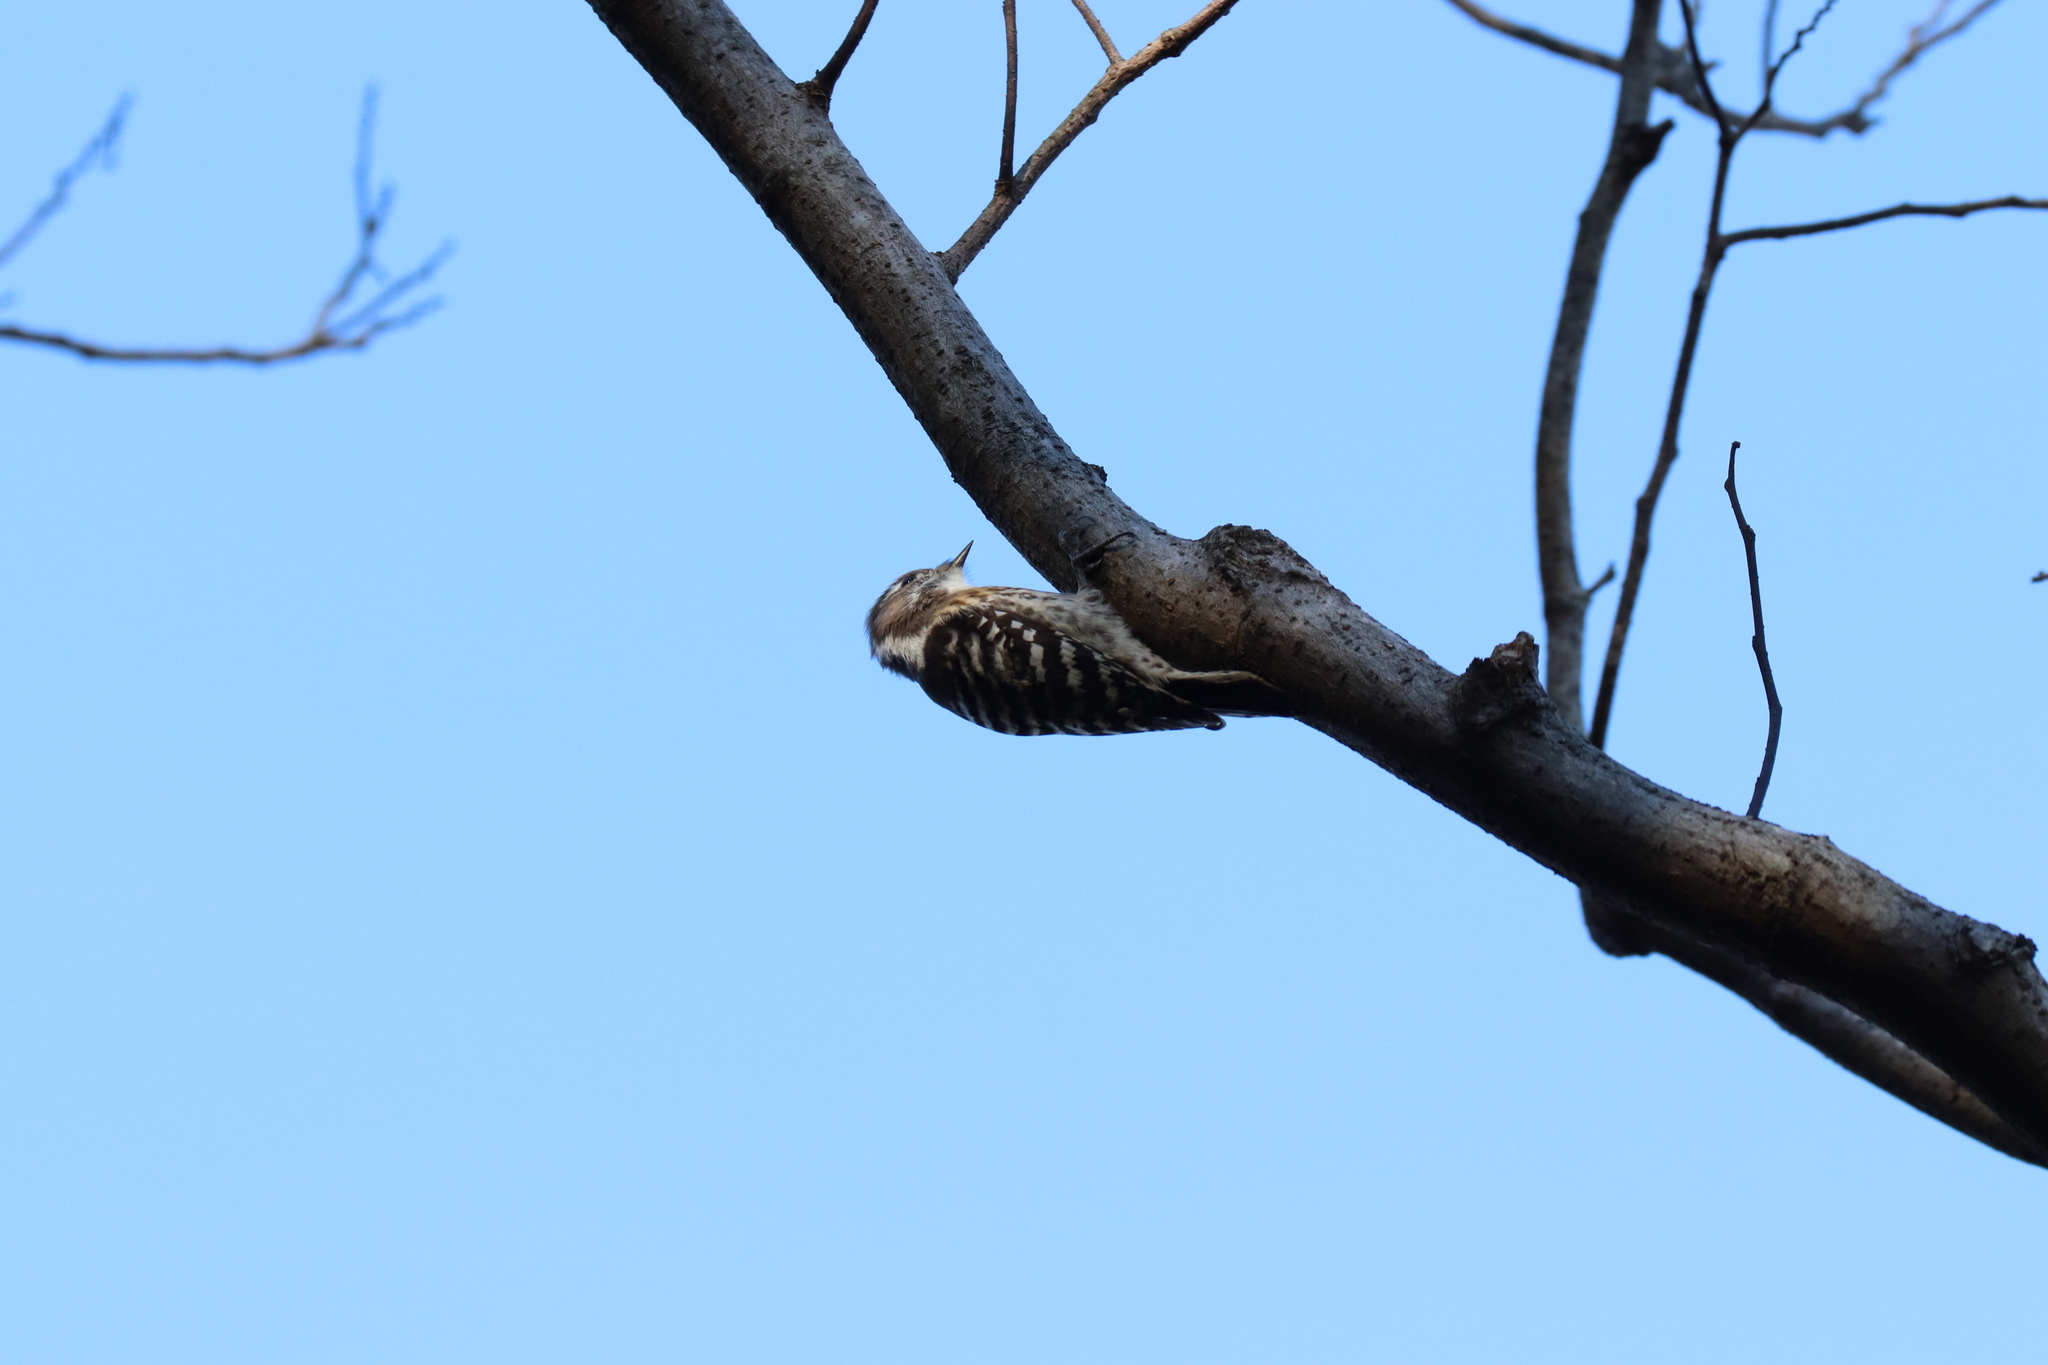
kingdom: Animalia
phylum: Chordata
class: Aves
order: Piciformes
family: Picidae
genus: Yungipicus
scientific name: Yungipicus kizuki
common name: Japanese pygmy woodpecker
